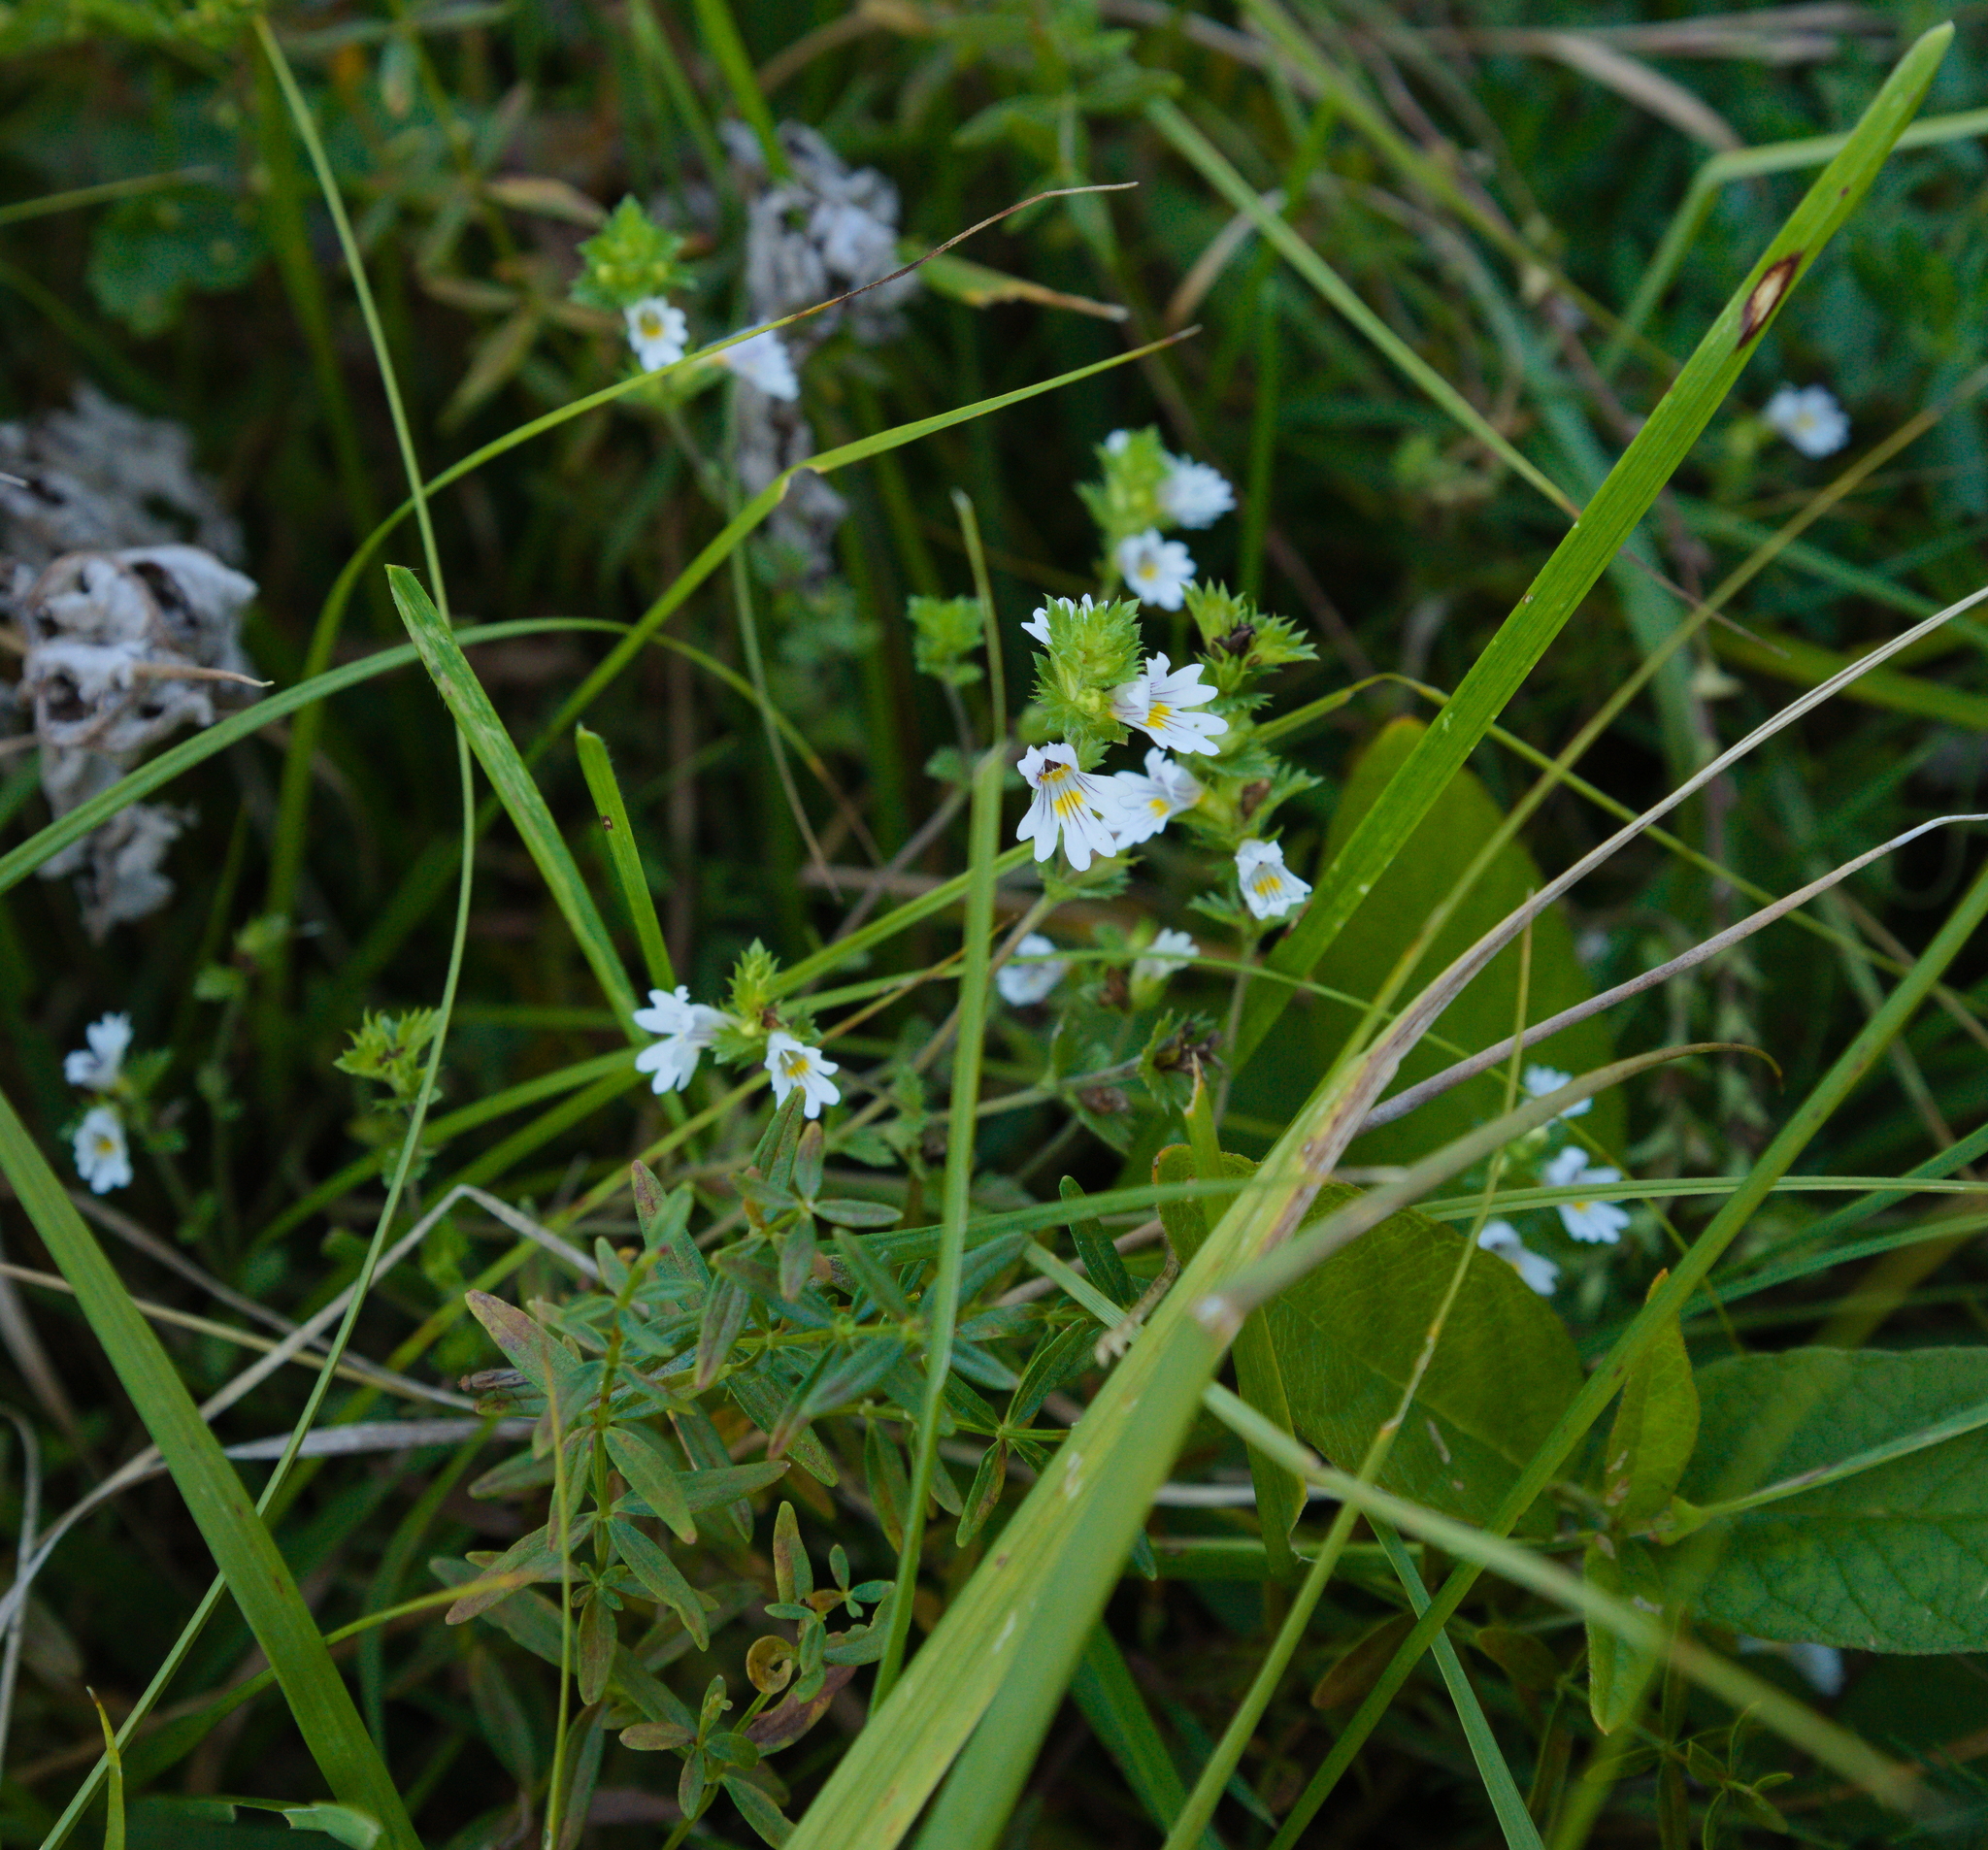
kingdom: Plantae
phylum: Tracheophyta
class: Magnoliopsida
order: Lamiales
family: Orobanchaceae
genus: Euphrasia
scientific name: Euphrasia officinalis
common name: Eyebright
